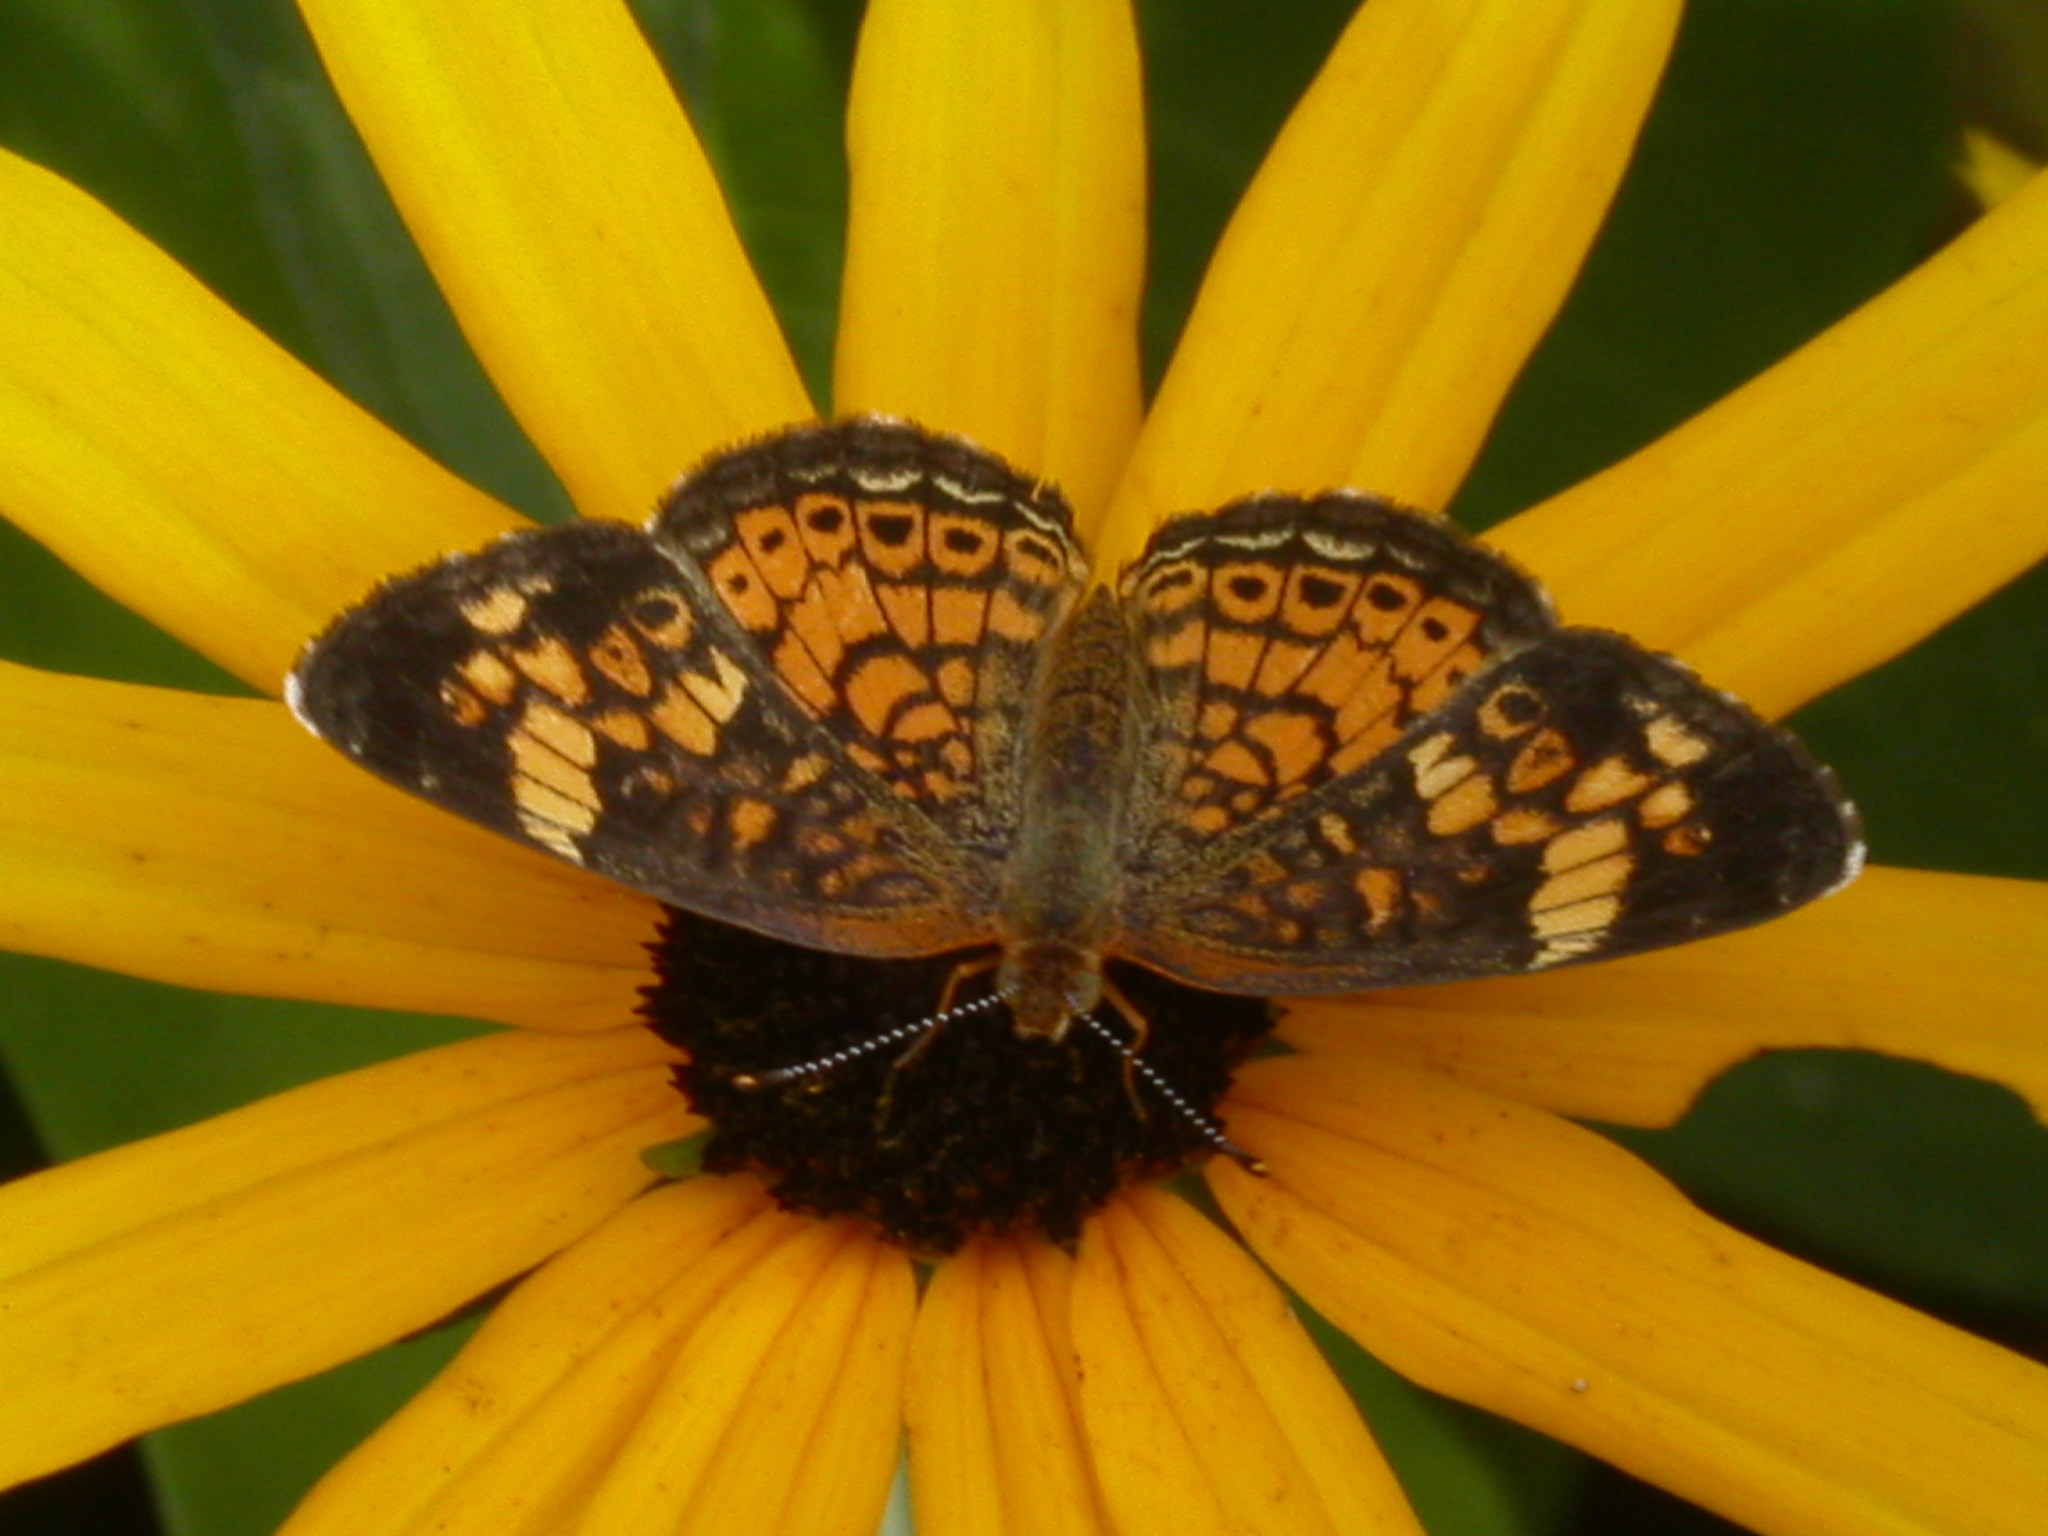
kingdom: Animalia
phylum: Arthropoda
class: Insecta
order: Lepidoptera
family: Nymphalidae
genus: Phyciodes
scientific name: Phyciodes tharos
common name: Pearl crescent
